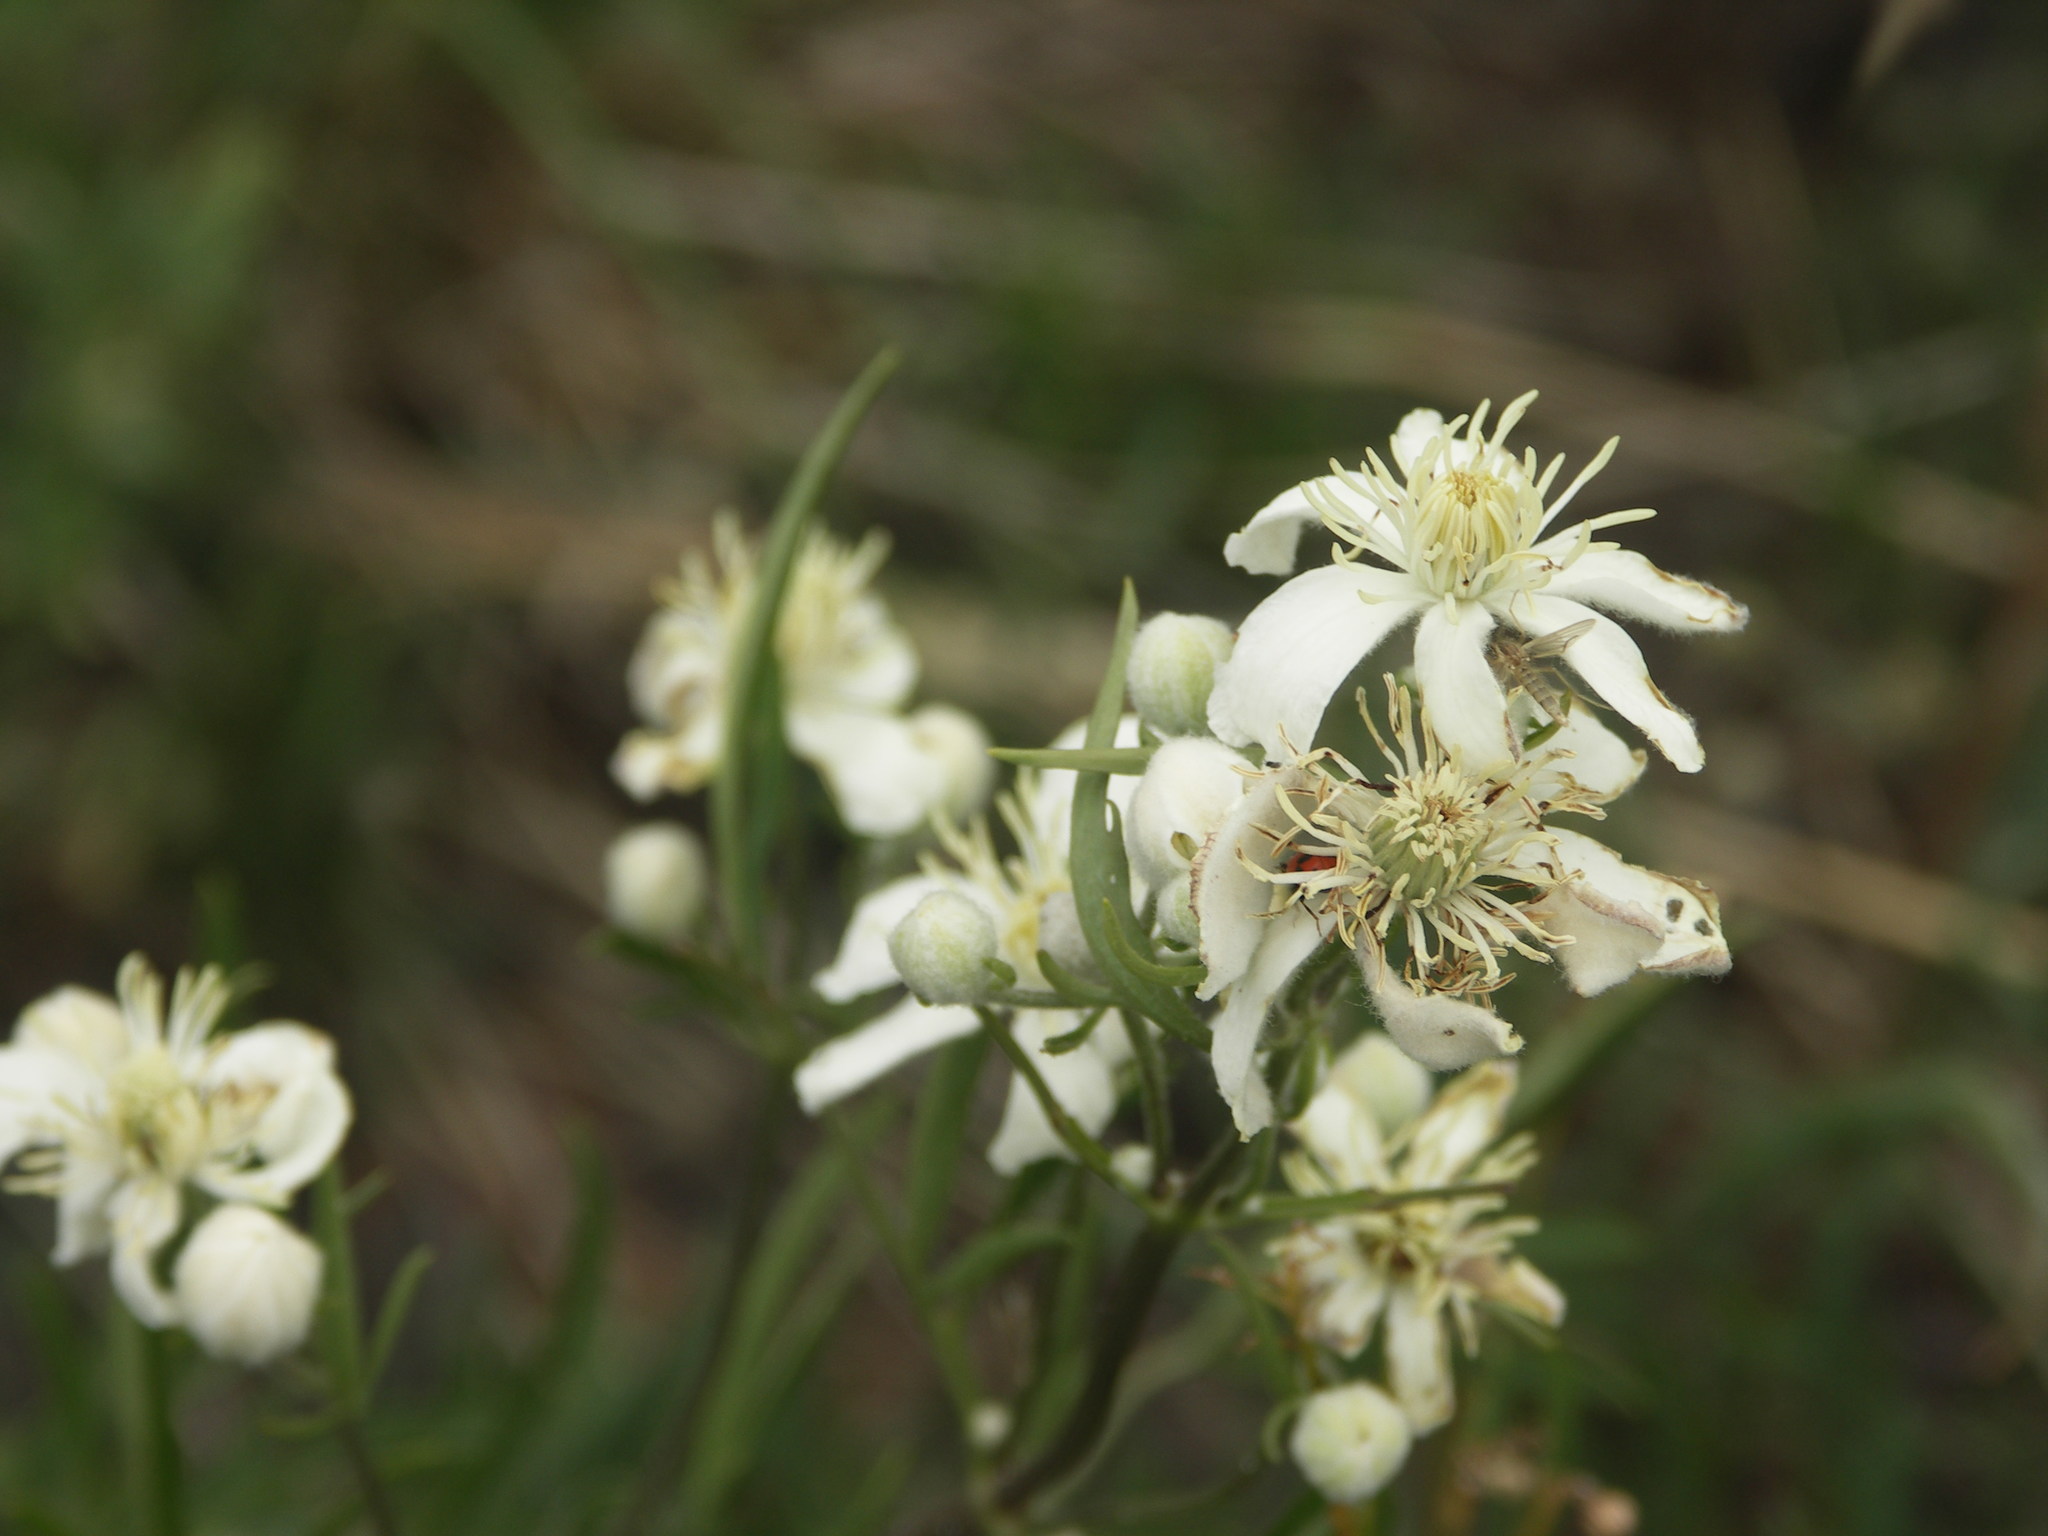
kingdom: Plantae
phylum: Tracheophyta
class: Magnoliopsida
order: Ranunculales
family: Ranunculaceae
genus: Clematis
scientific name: Clematis hexapetala
